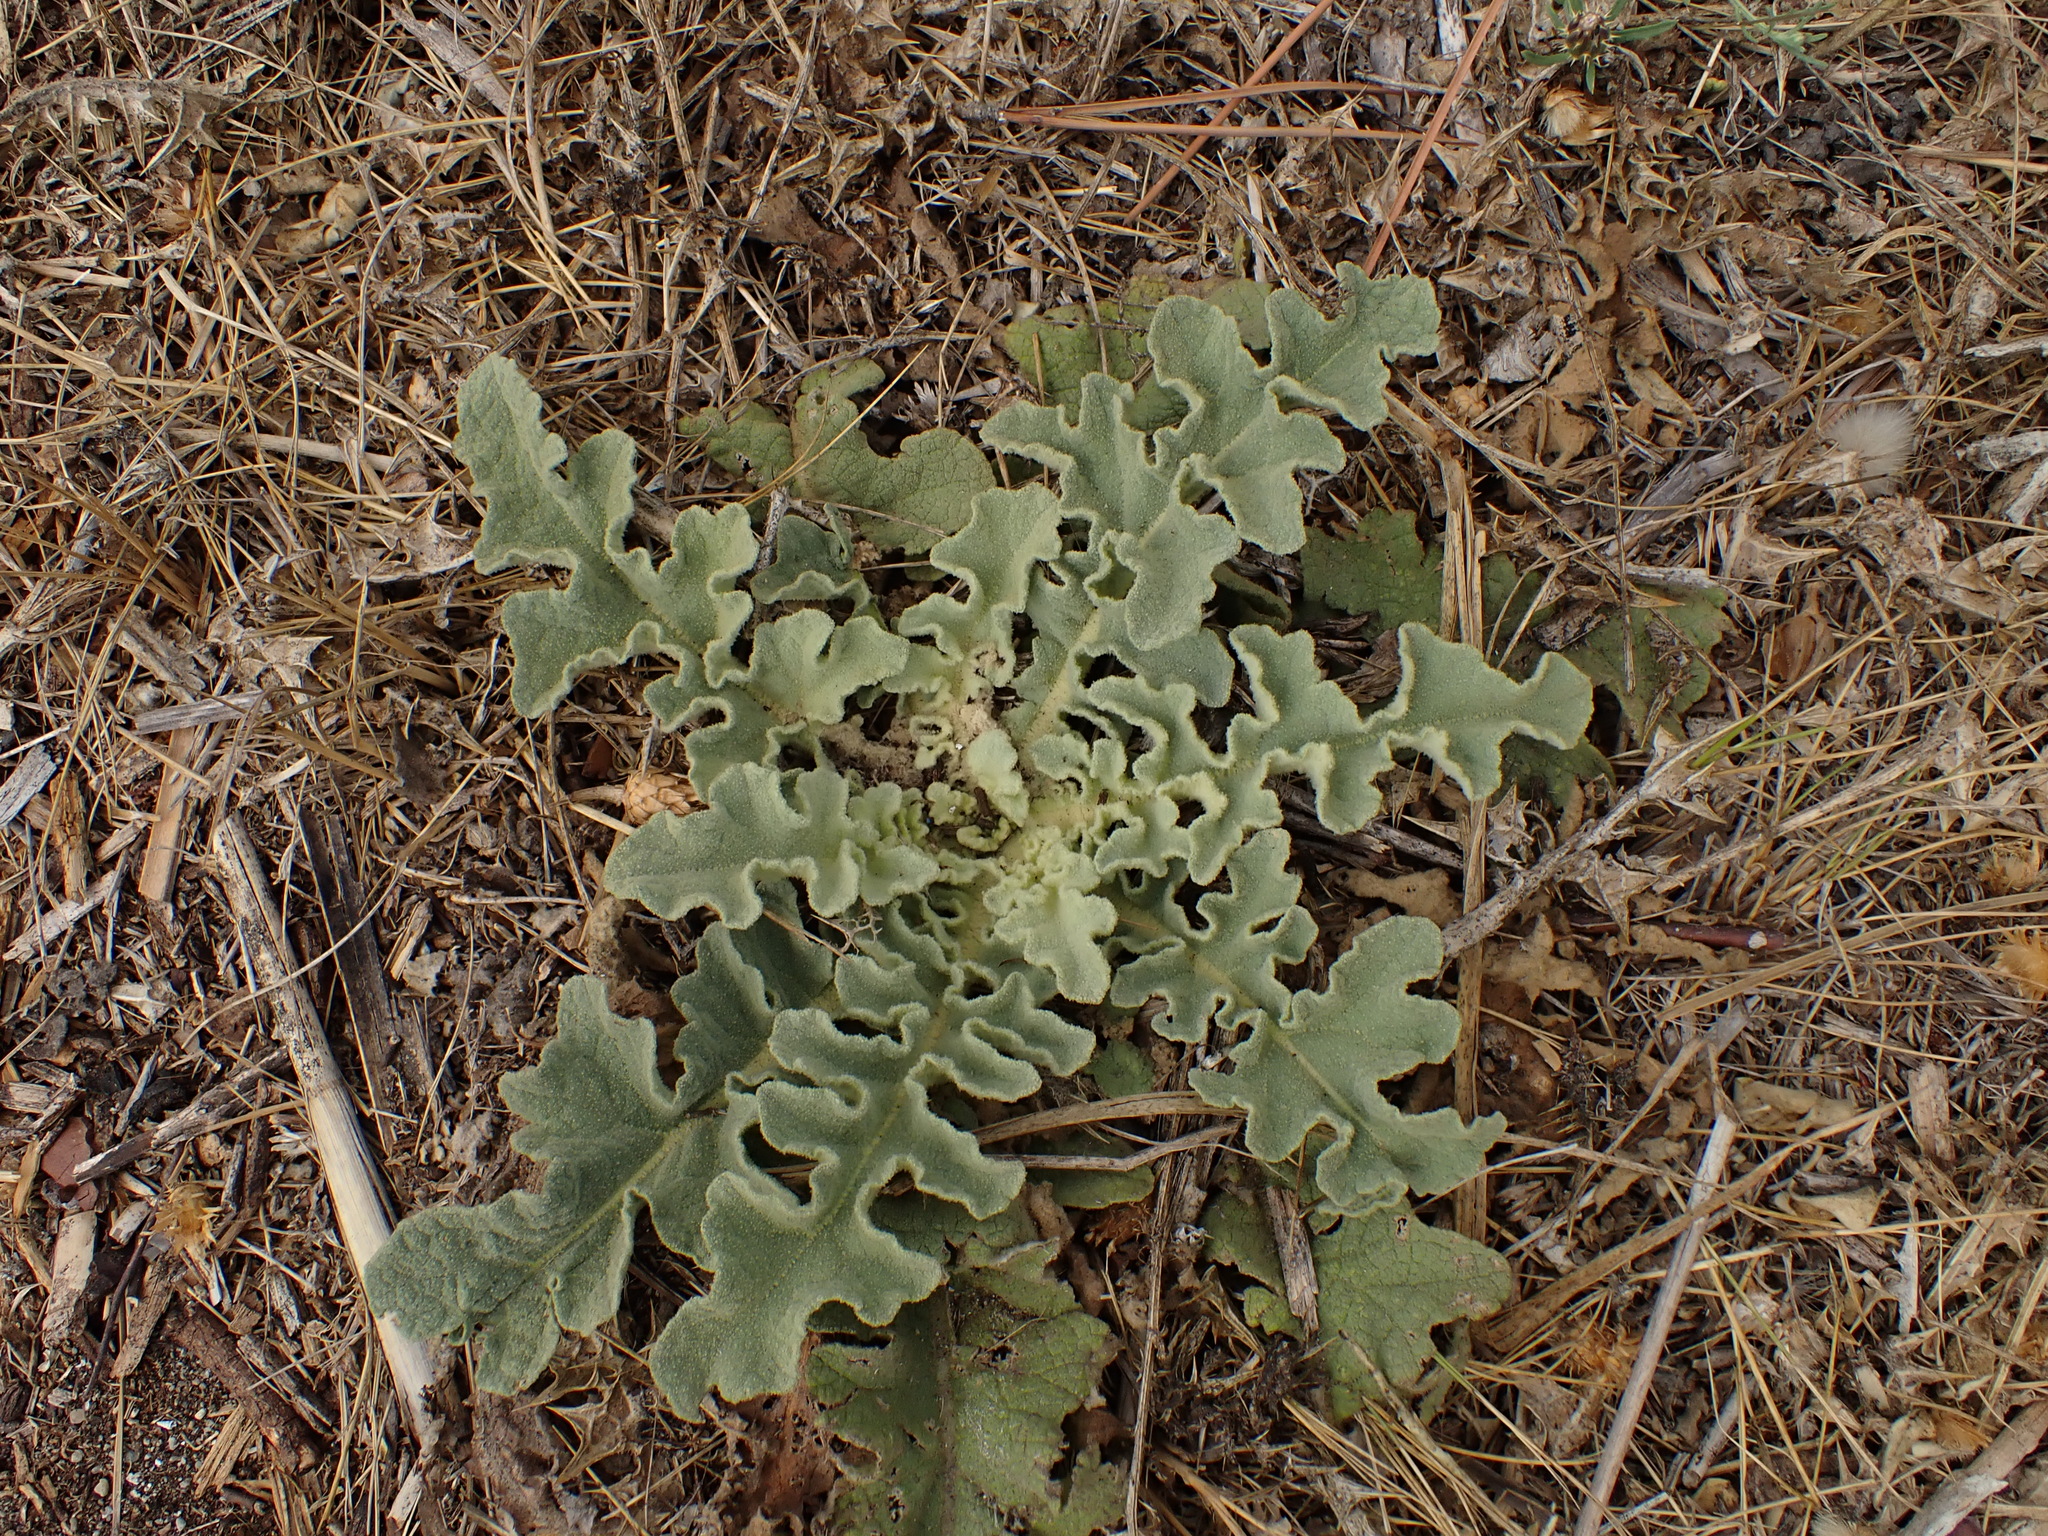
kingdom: Plantae
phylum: Tracheophyta
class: Magnoliopsida
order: Lamiales
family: Scrophulariaceae
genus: Verbascum
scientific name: Verbascum sinuatum
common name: Wavyleaf mullein
